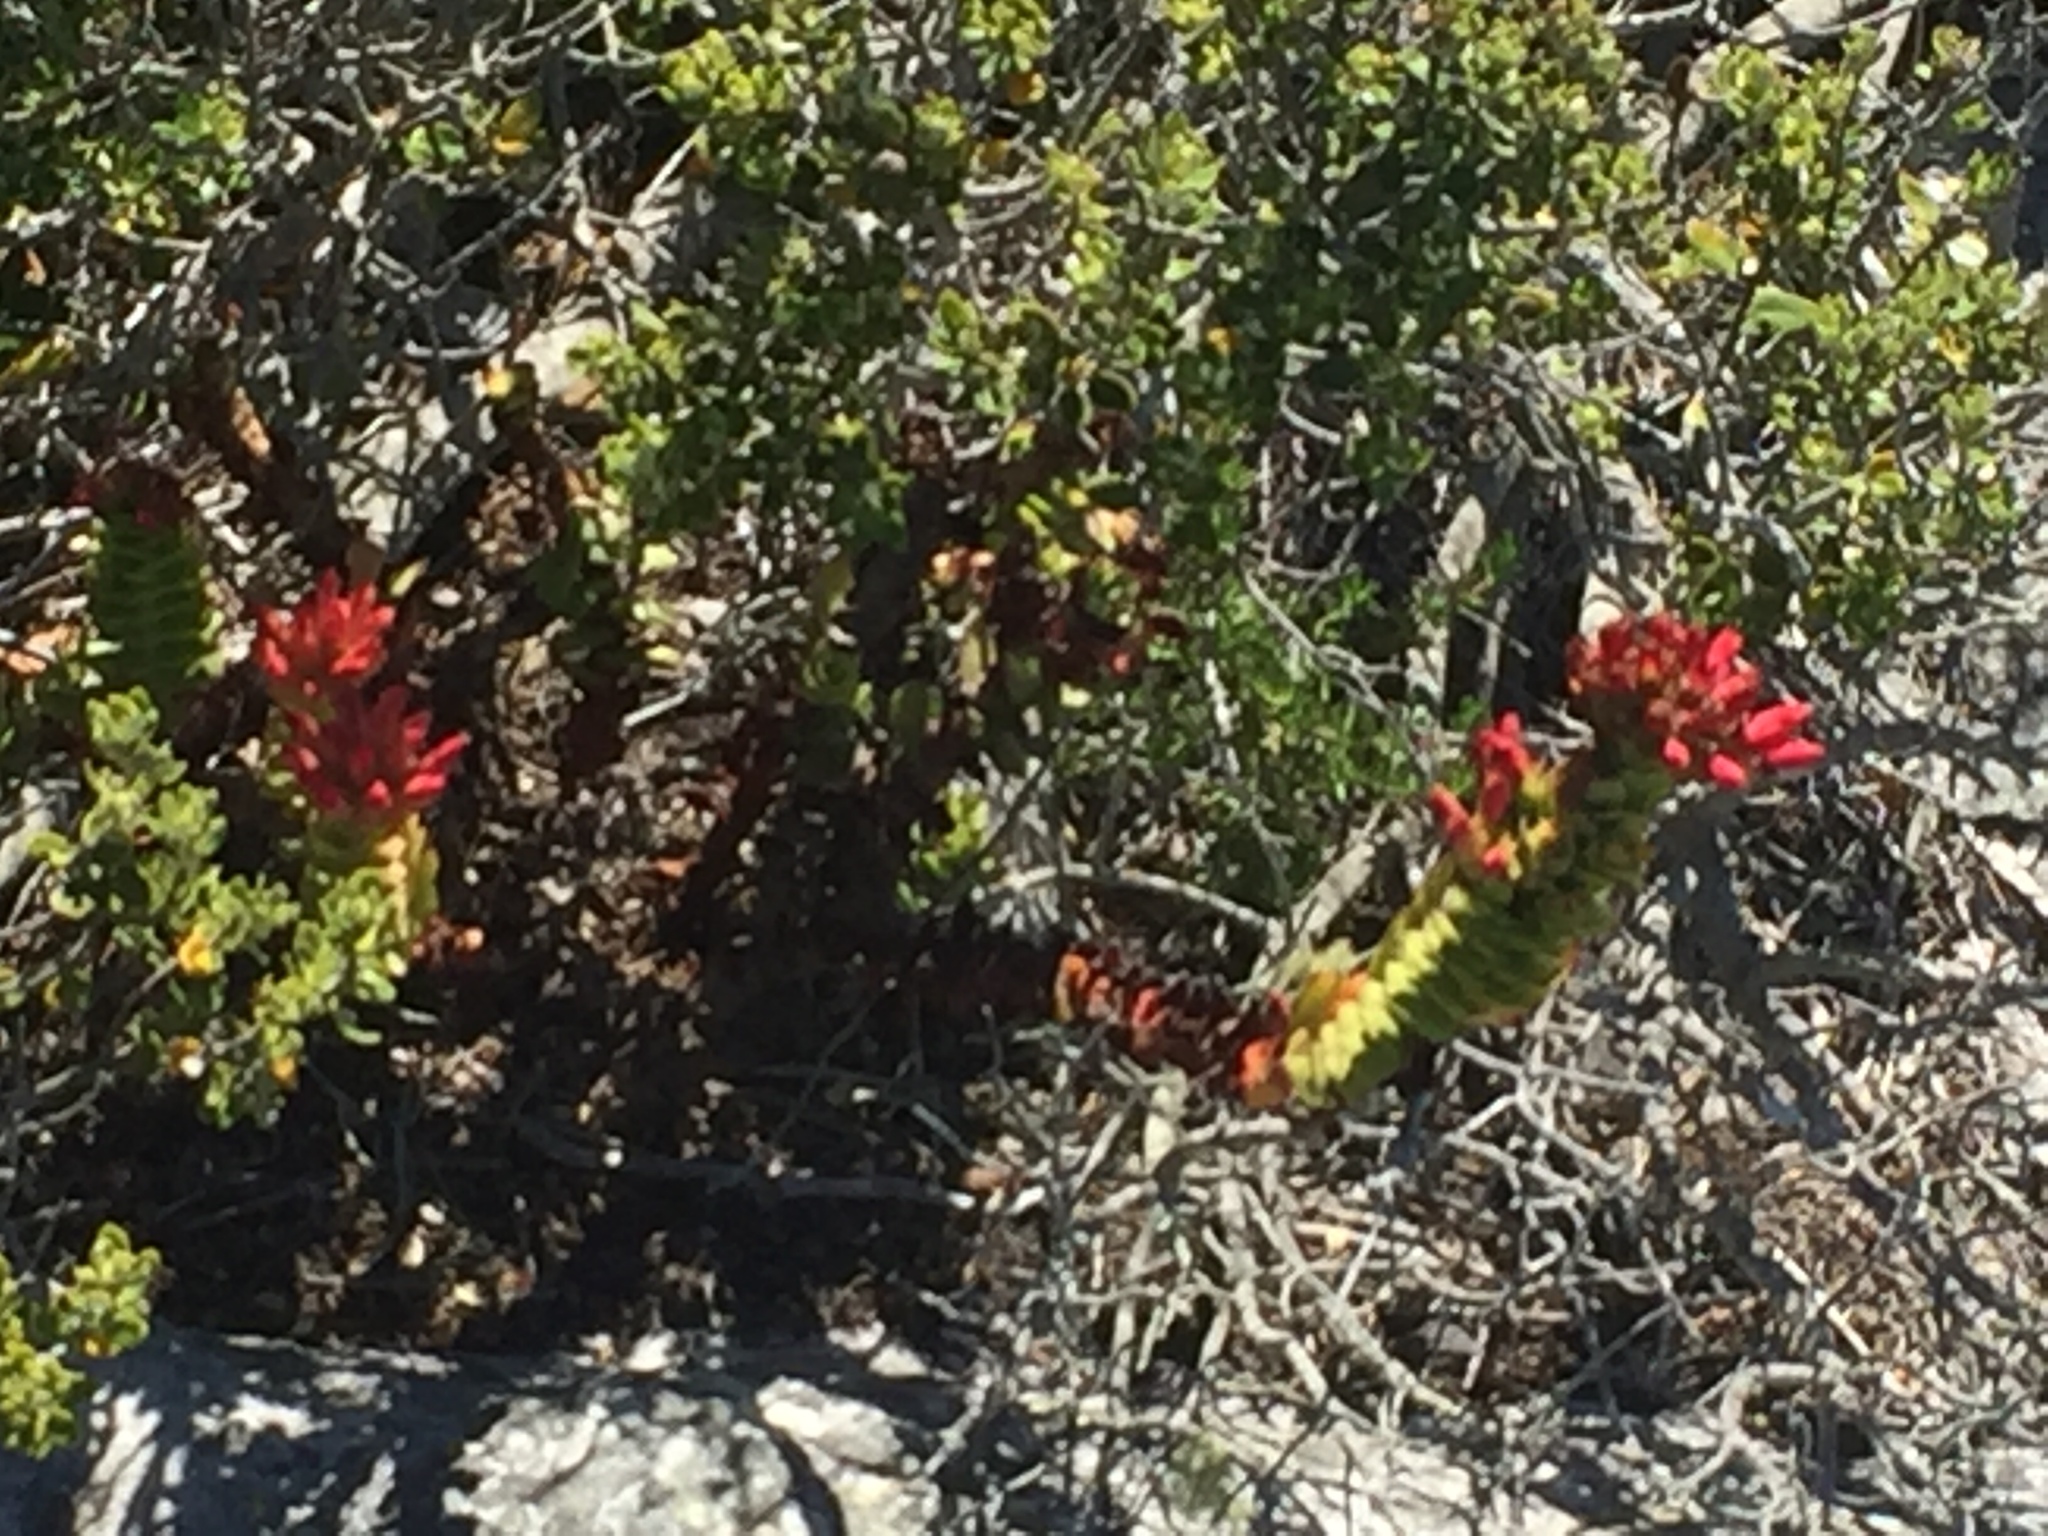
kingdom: Plantae
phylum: Tracheophyta
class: Magnoliopsida
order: Saxifragales
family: Crassulaceae
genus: Crassula
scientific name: Crassula coccinea
